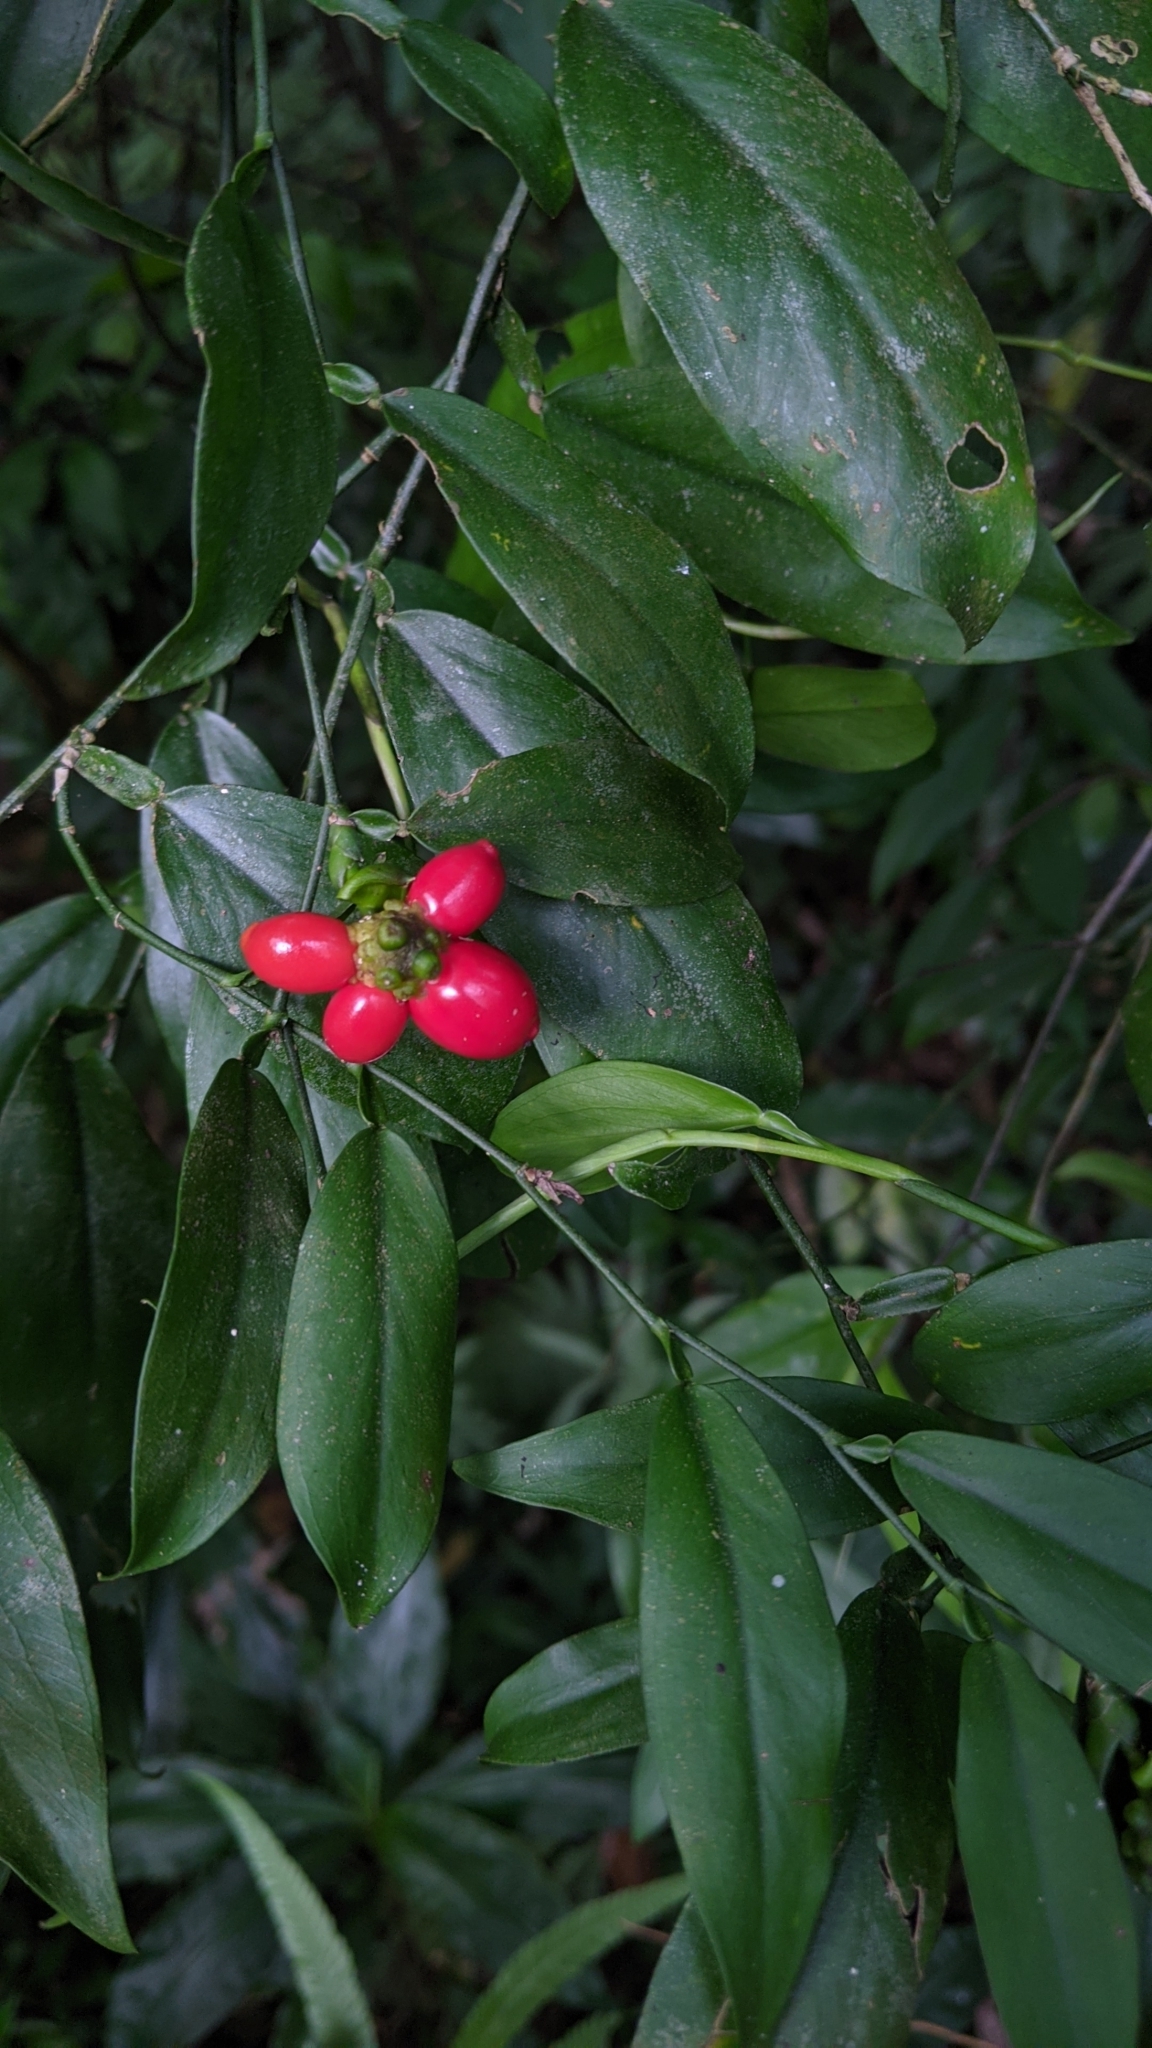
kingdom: Plantae
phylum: Tracheophyta
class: Liliopsida
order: Alismatales
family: Araceae
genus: Pothos
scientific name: Pothos chinensis
